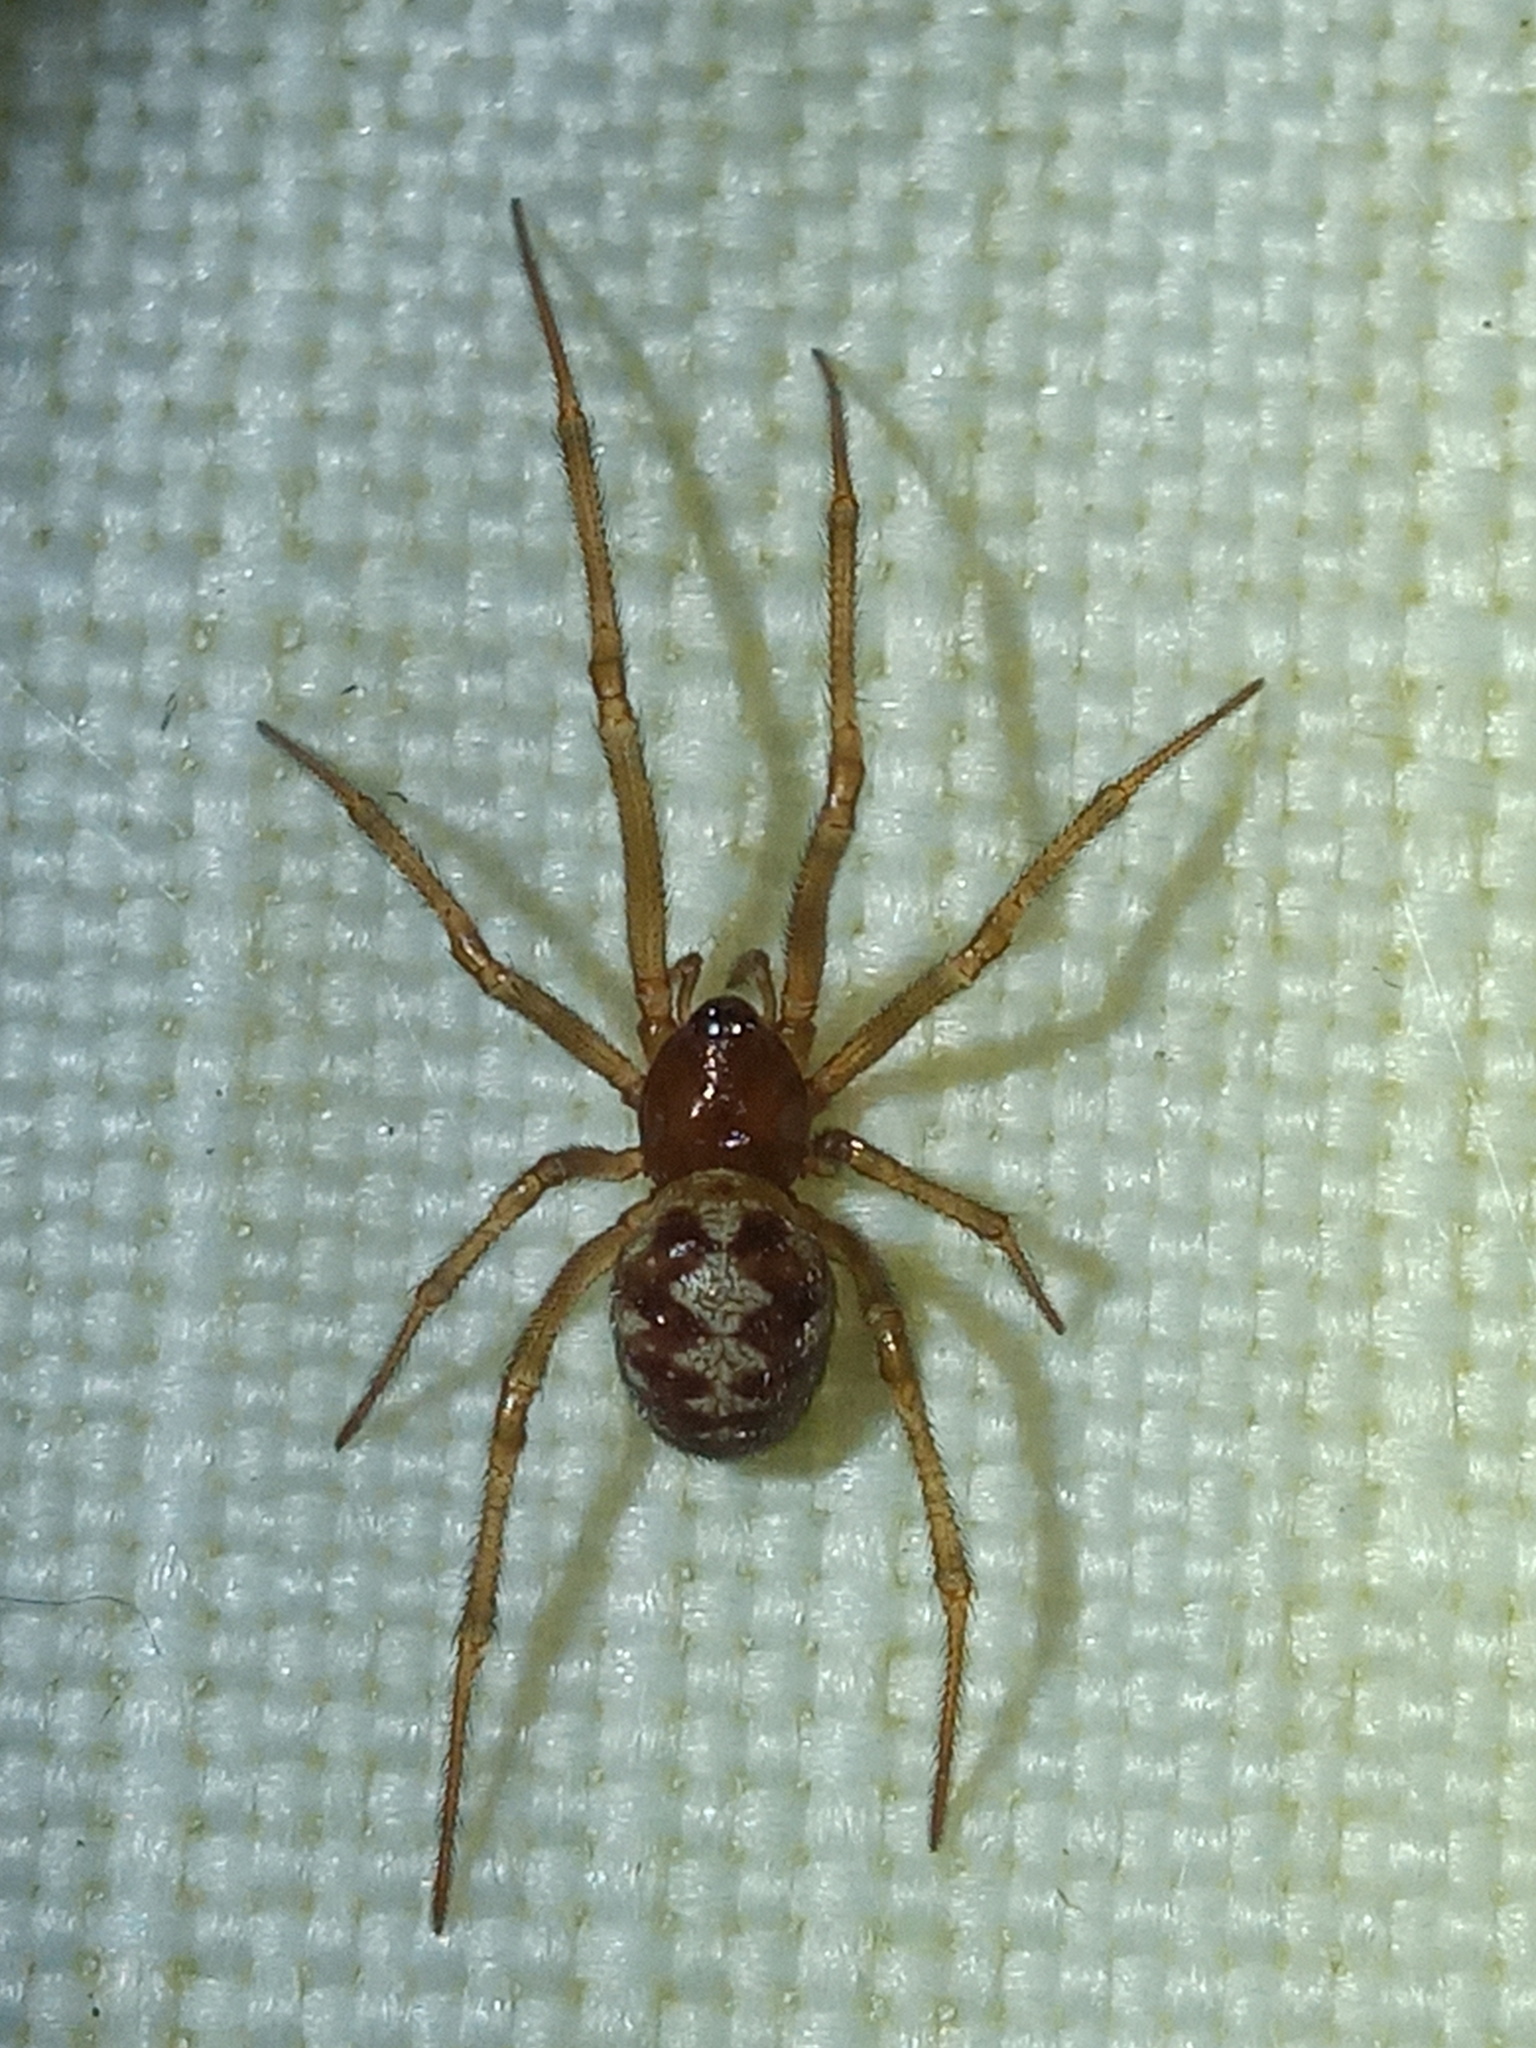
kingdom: Animalia
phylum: Arthropoda
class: Arachnida
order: Araneae
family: Theridiidae
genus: Steatoda
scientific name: Steatoda triangulosa
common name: Triangulate bud spider
